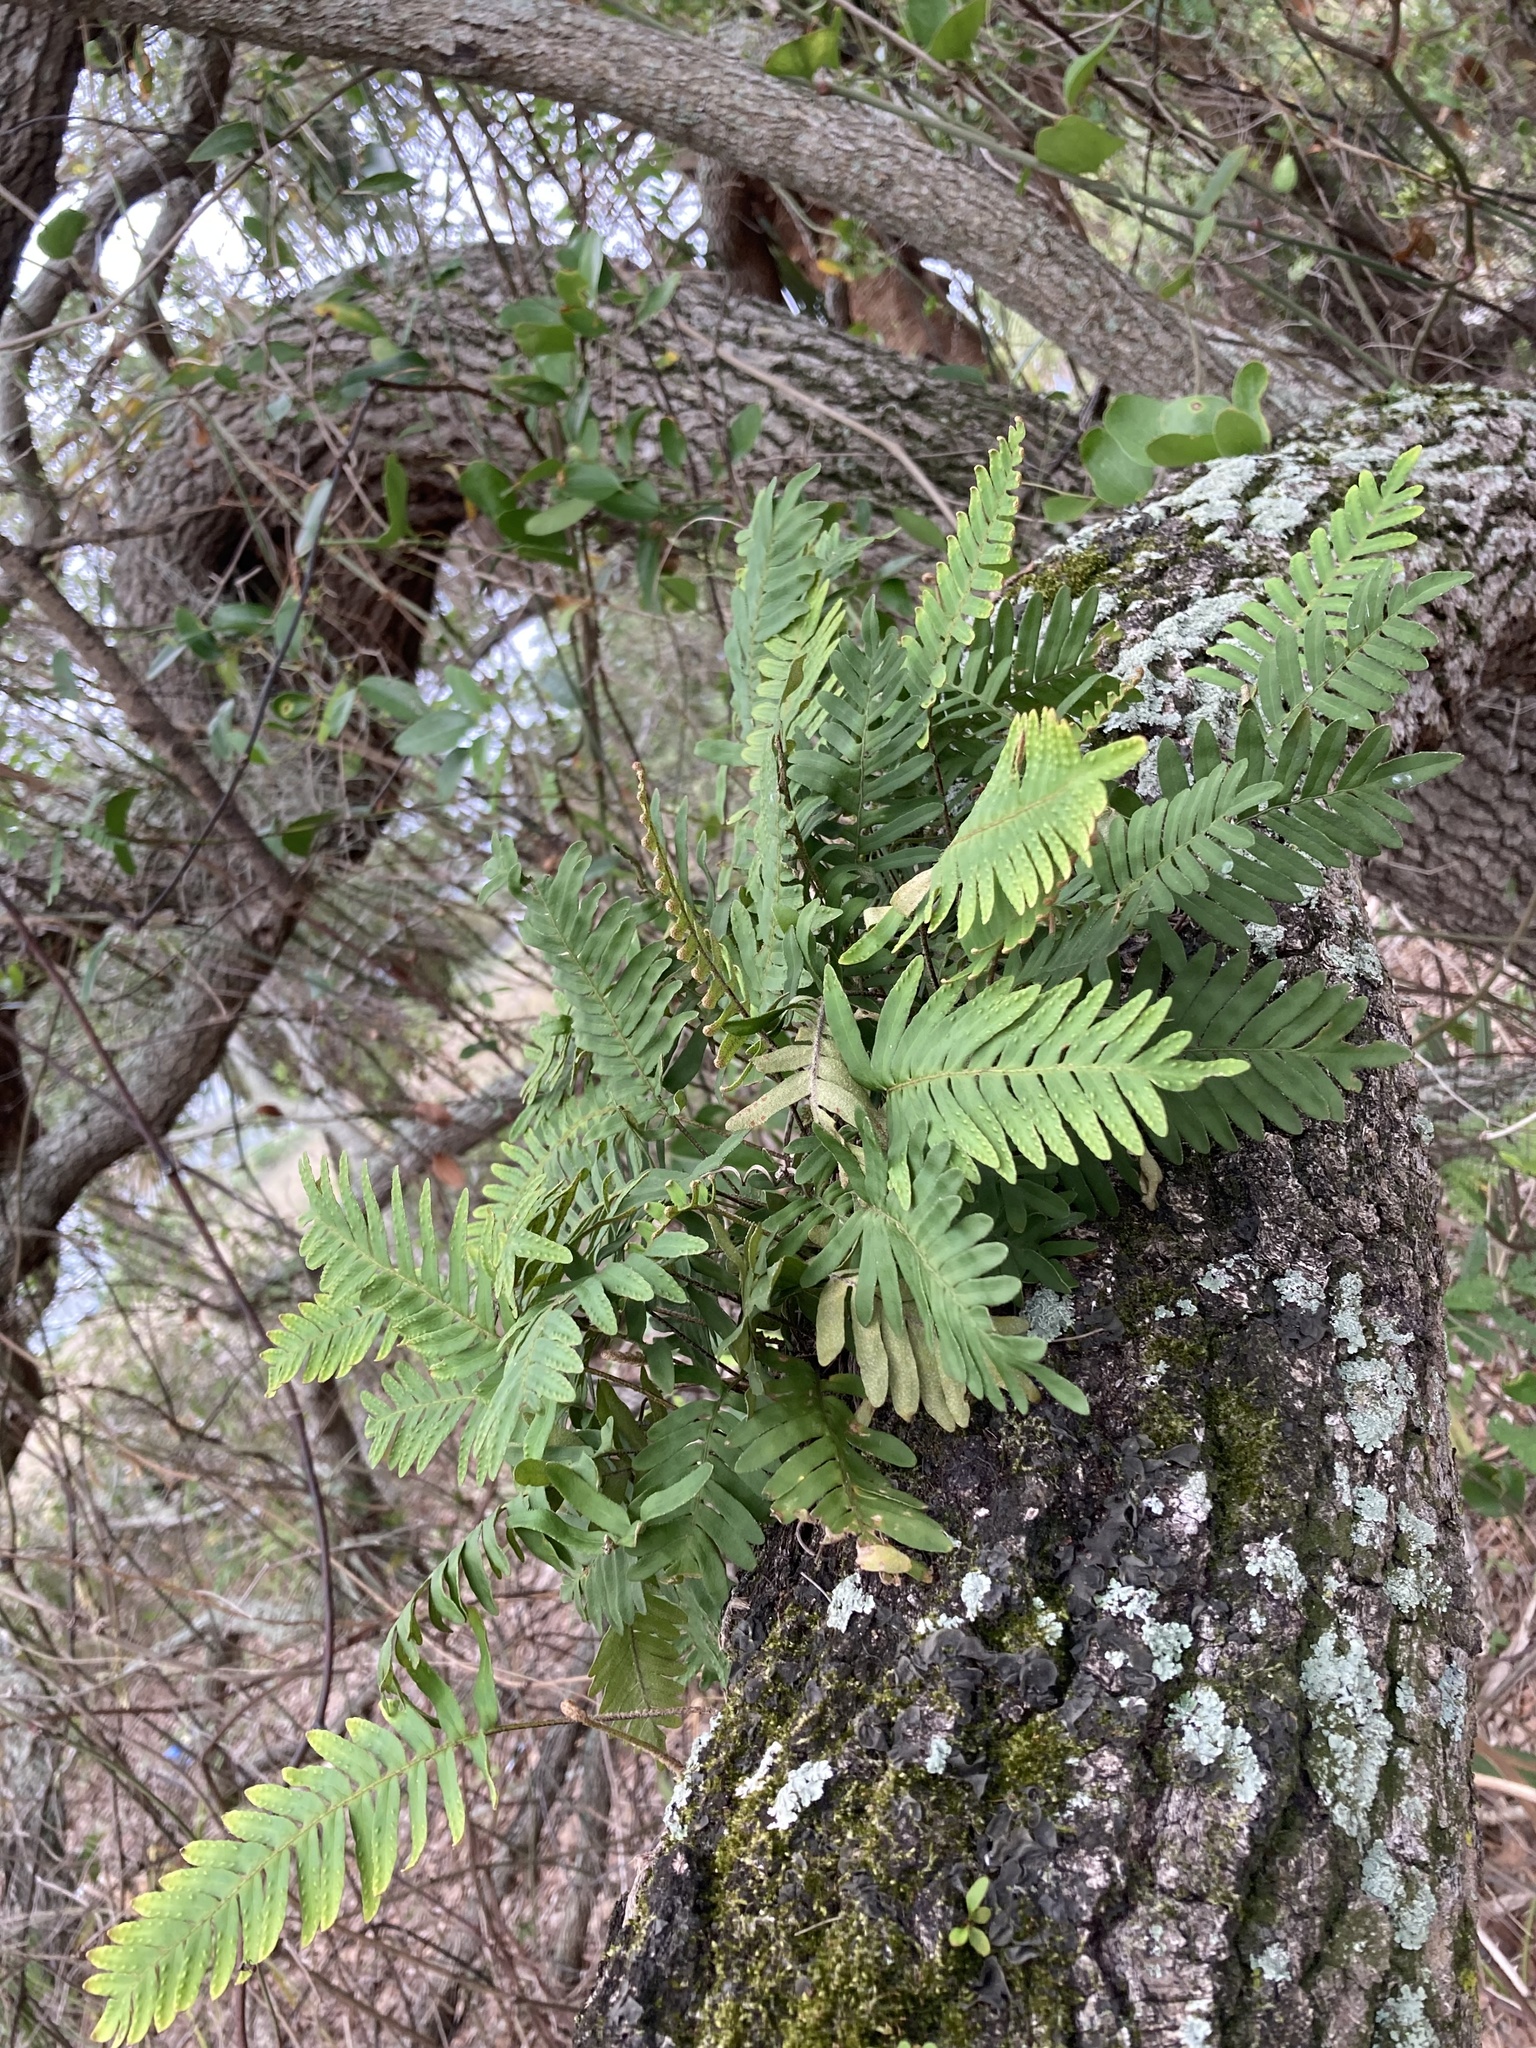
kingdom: Plantae
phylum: Tracheophyta
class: Polypodiopsida
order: Polypodiales
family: Polypodiaceae
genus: Pleopeltis
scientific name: Pleopeltis michauxiana
